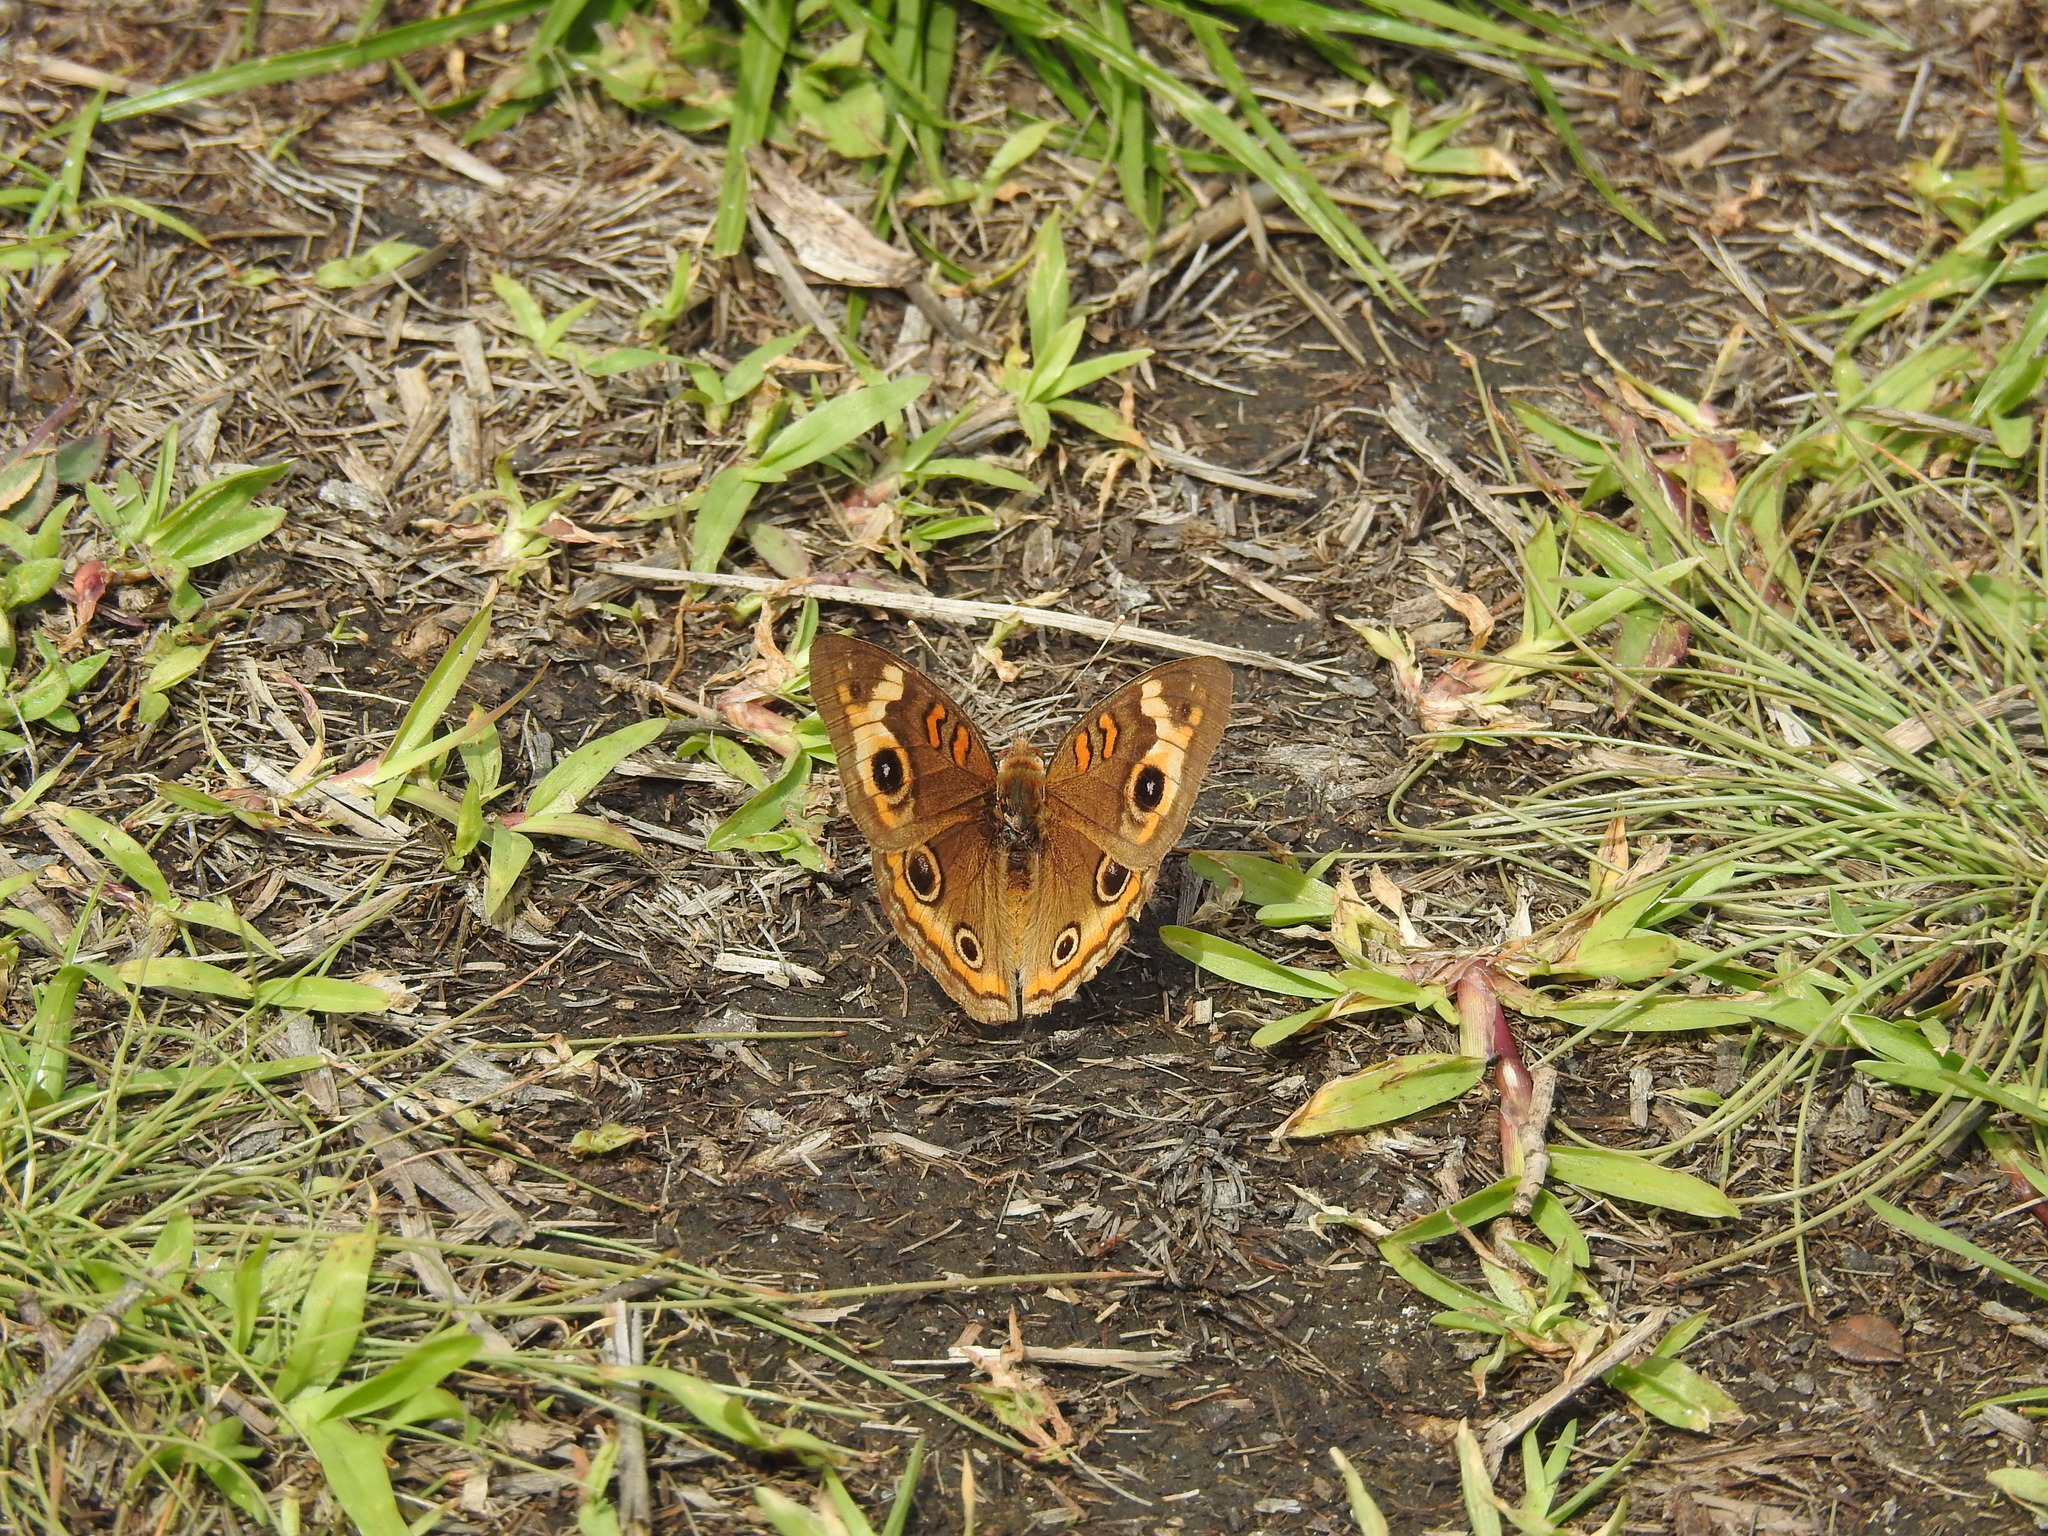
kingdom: Animalia
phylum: Arthropoda
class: Insecta
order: Lepidoptera
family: Nymphalidae
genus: Junonia
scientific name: Junonia neildi
